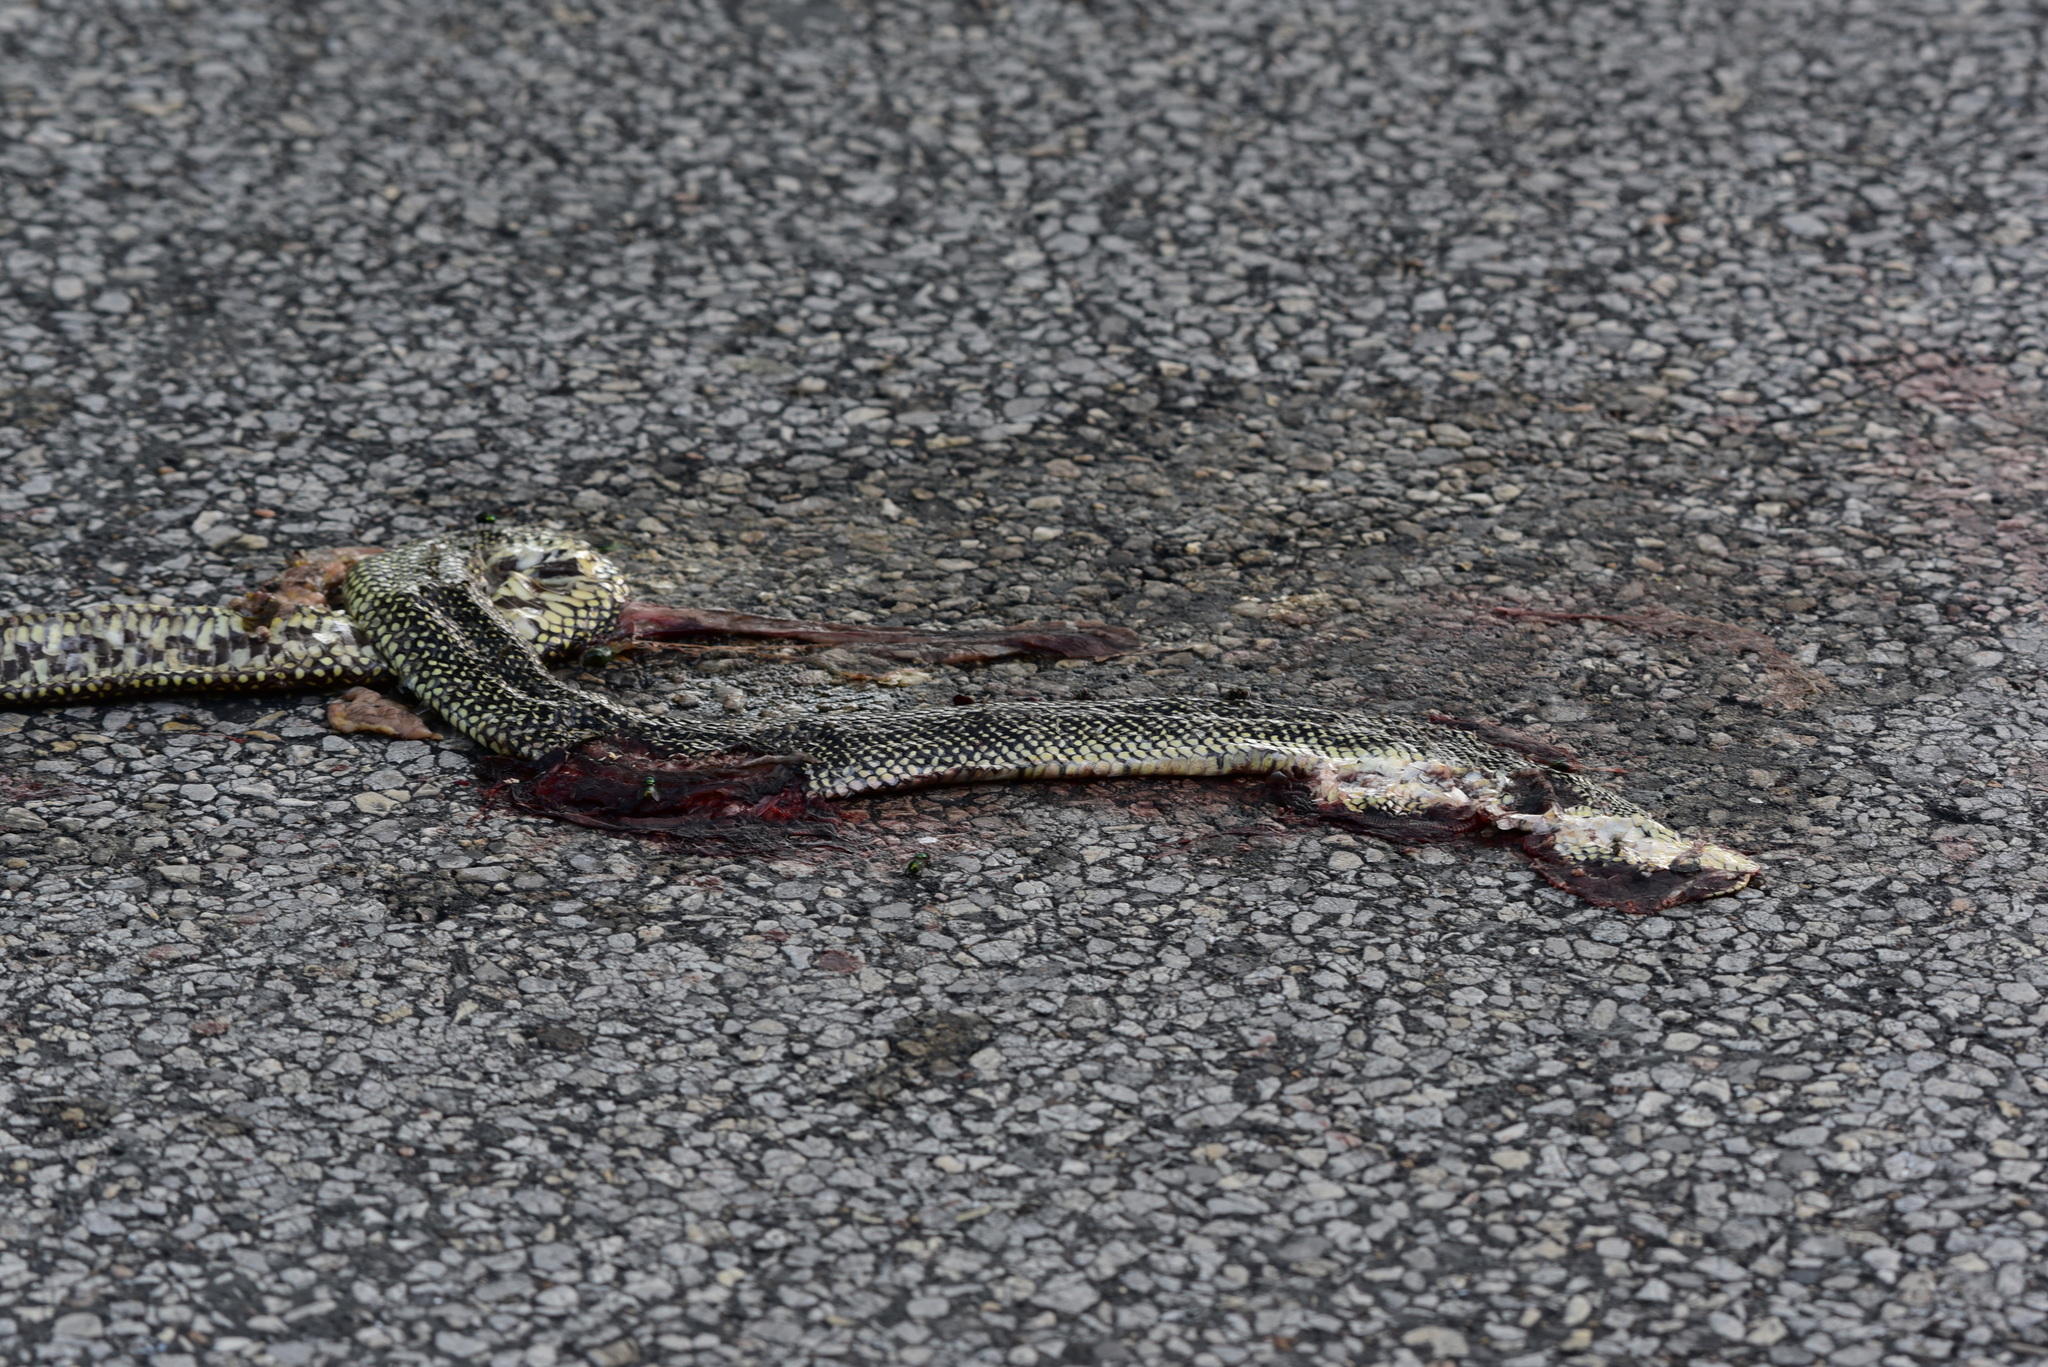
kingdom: Animalia
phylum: Chordata
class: Squamata
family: Colubridae
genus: Lampropeltis
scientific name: Lampropeltis holbrooki
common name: Speckled kingsnake
